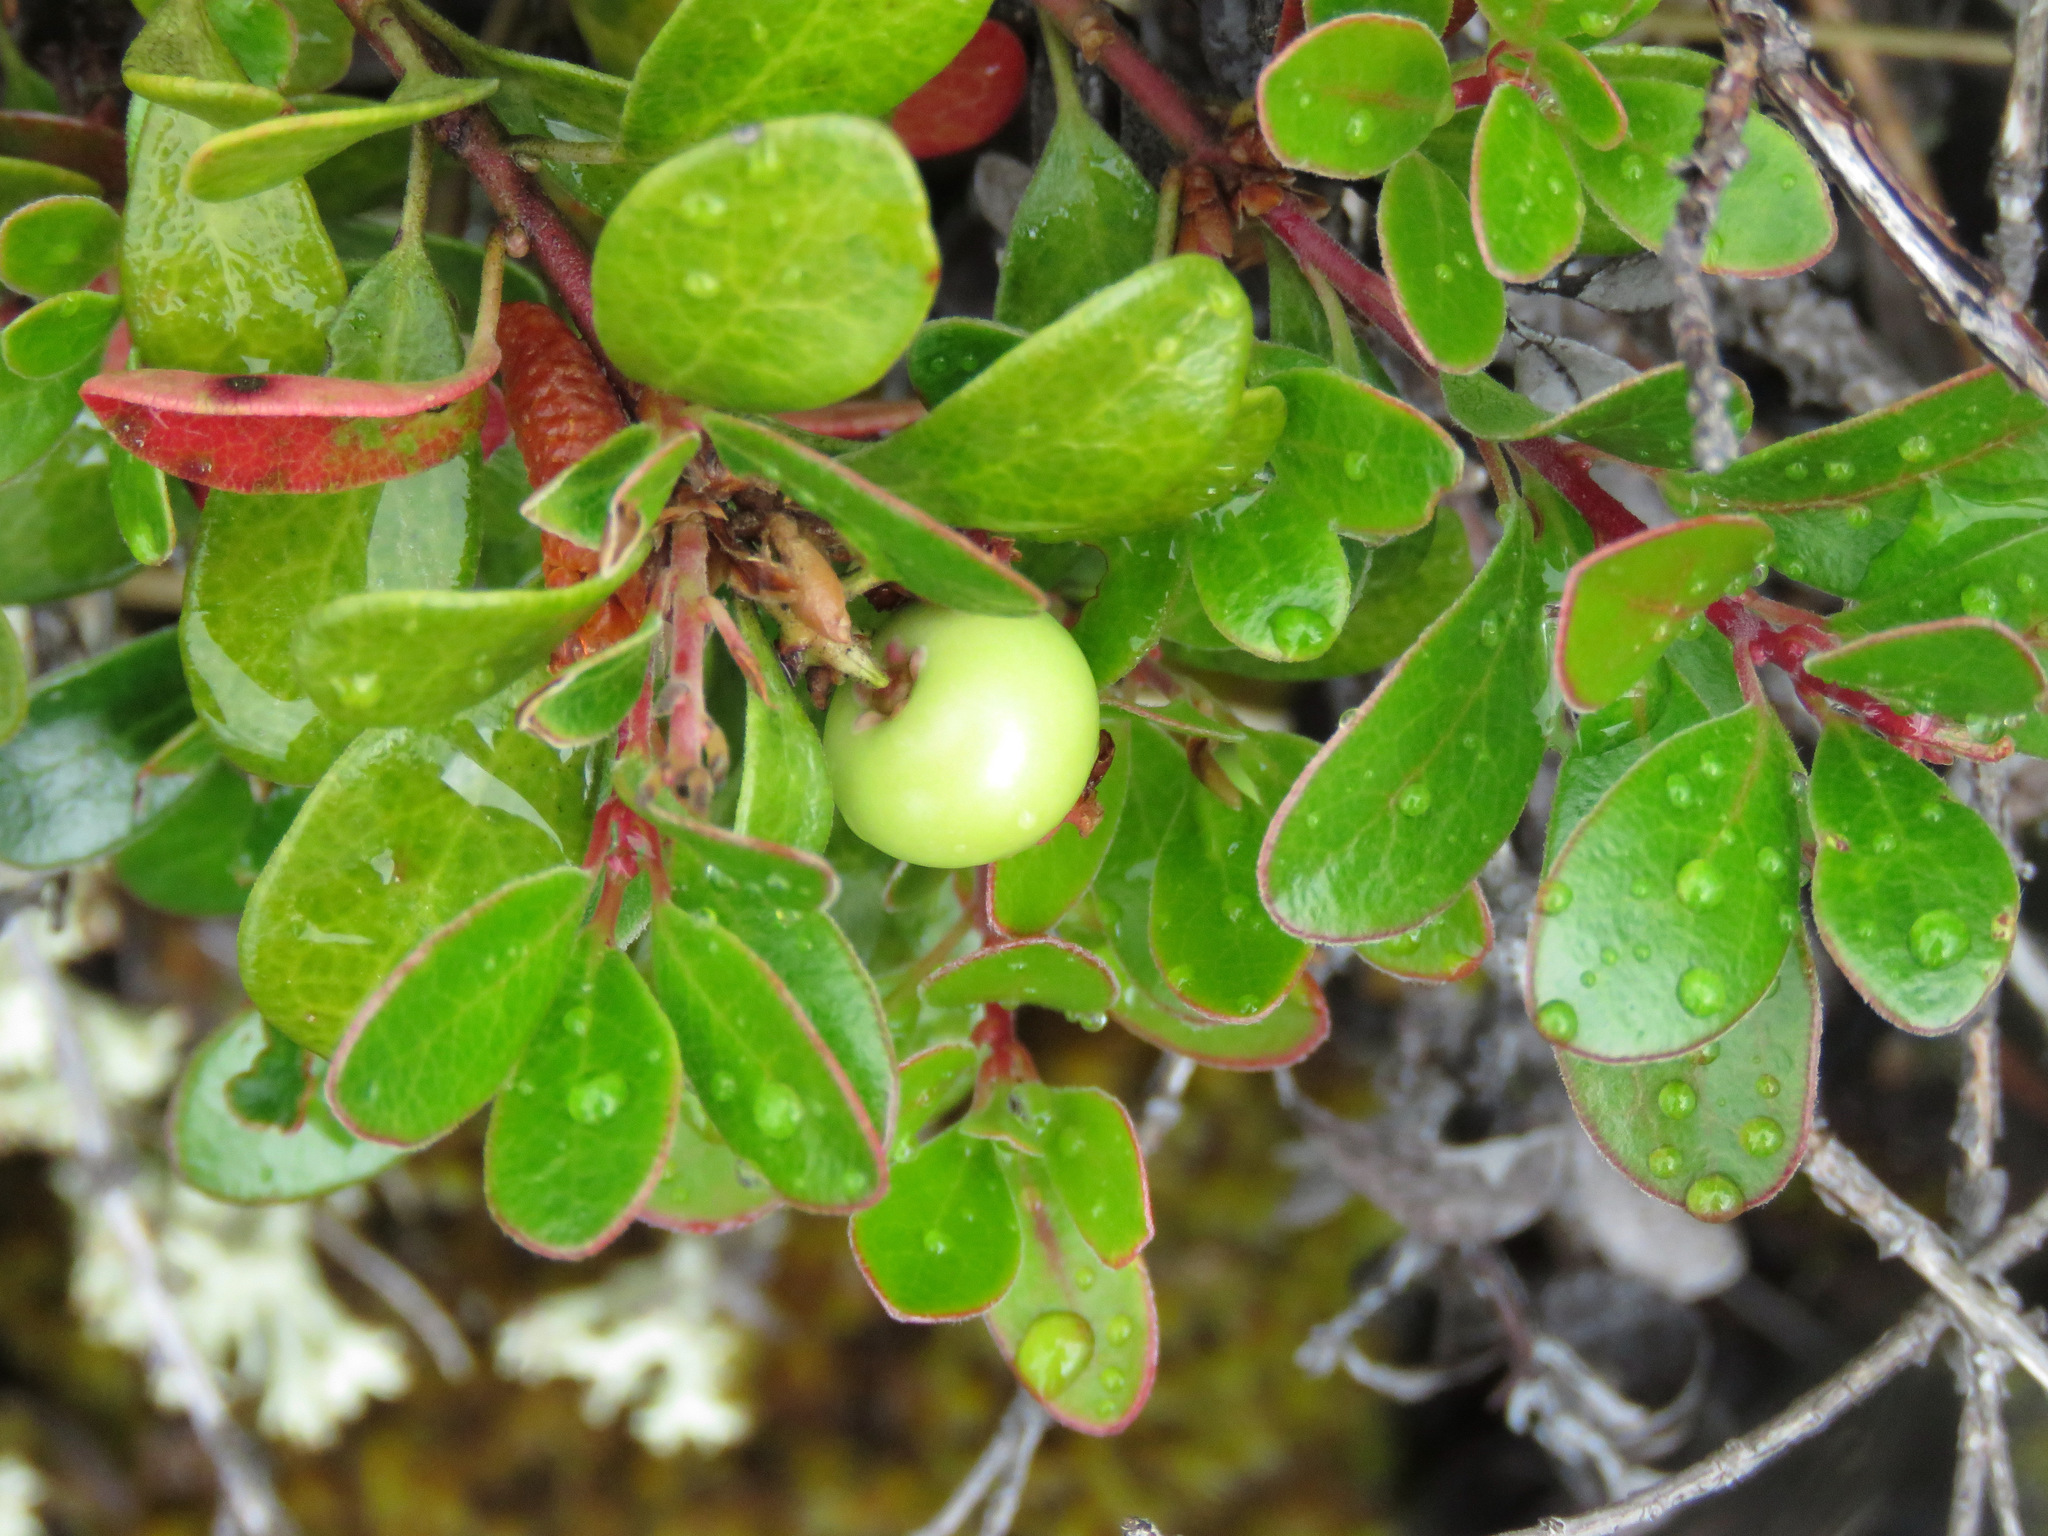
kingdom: Plantae
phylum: Tracheophyta
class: Magnoliopsida
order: Ericales
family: Ericaceae
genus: Arctostaphylos
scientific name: Arctostaphylos uva-ursi
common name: Bearberry
